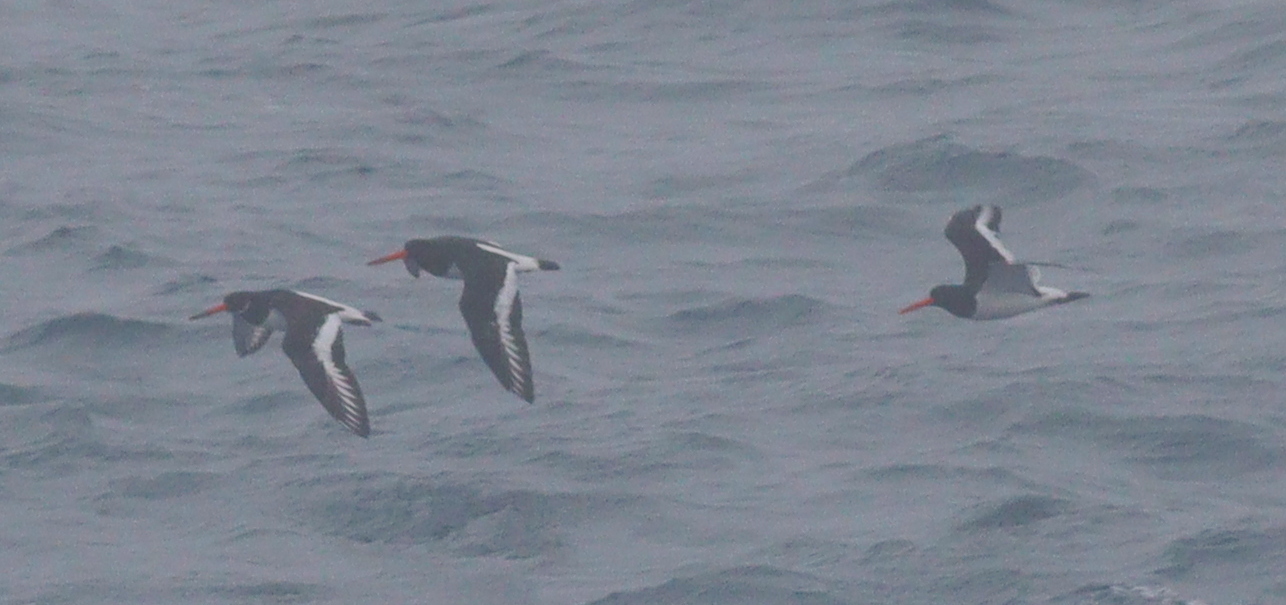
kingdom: Animalia
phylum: Chordata
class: Aves
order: Charadriiformes
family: Haematopodidae
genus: Haematopus
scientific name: Haematopus ostralegus
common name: Eurasian oystercatcher
